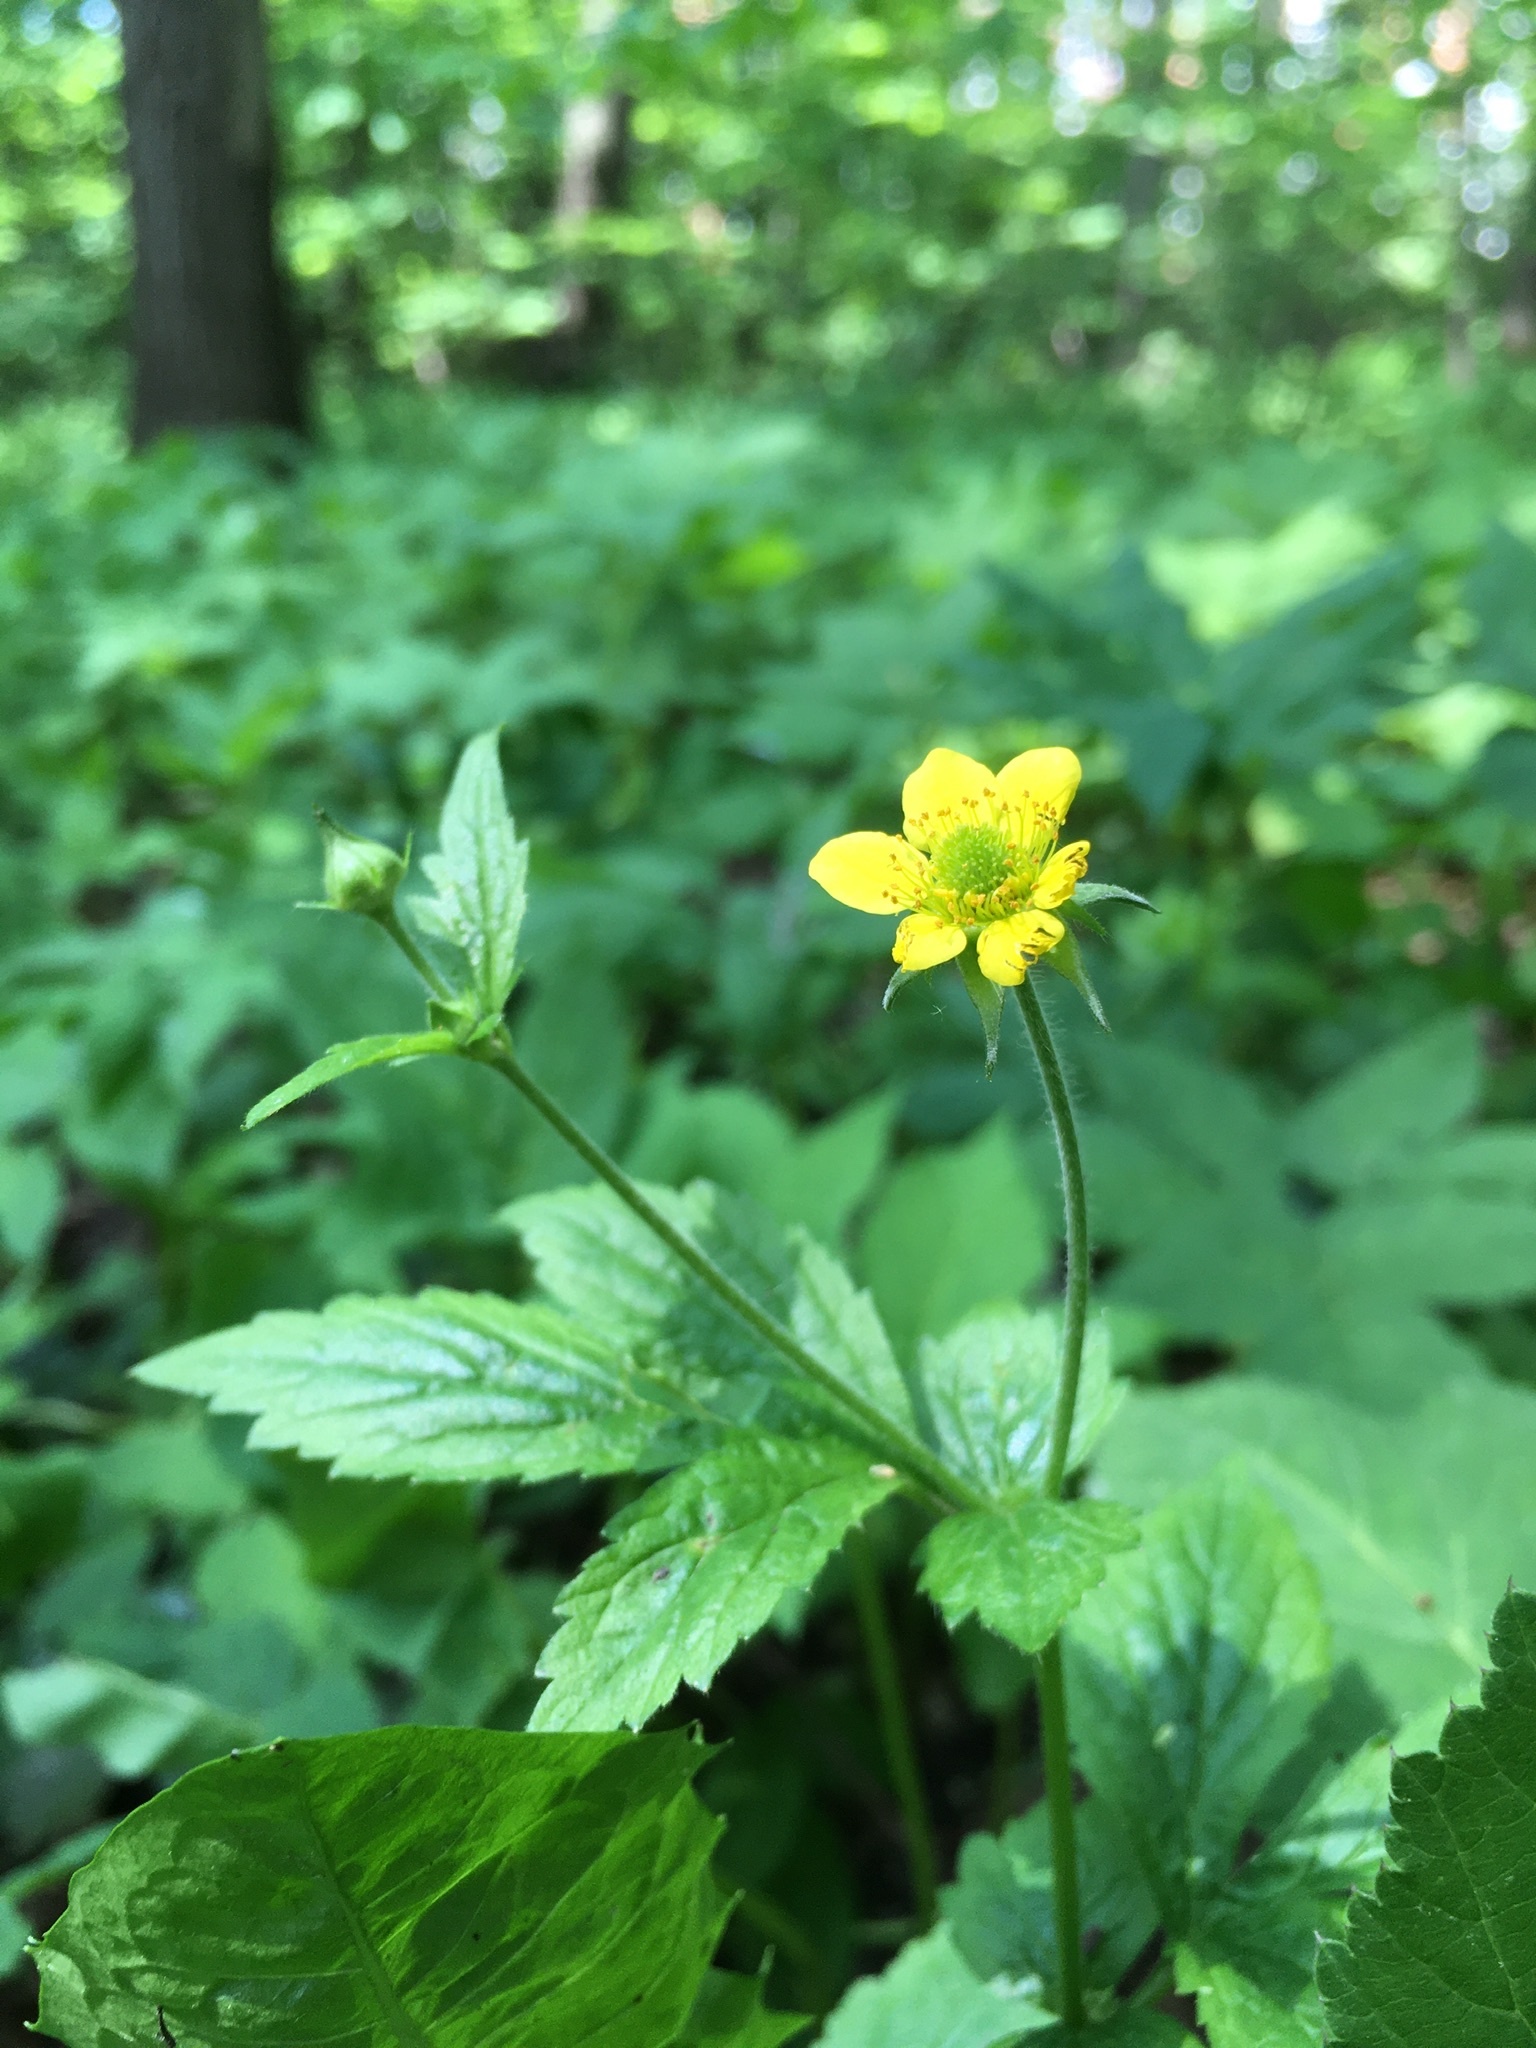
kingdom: Plantae
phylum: Tracheophyta
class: Magnoliopsida
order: Rosales
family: Rosaceae
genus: Geum
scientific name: Geum urbanum
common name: Wood avens
